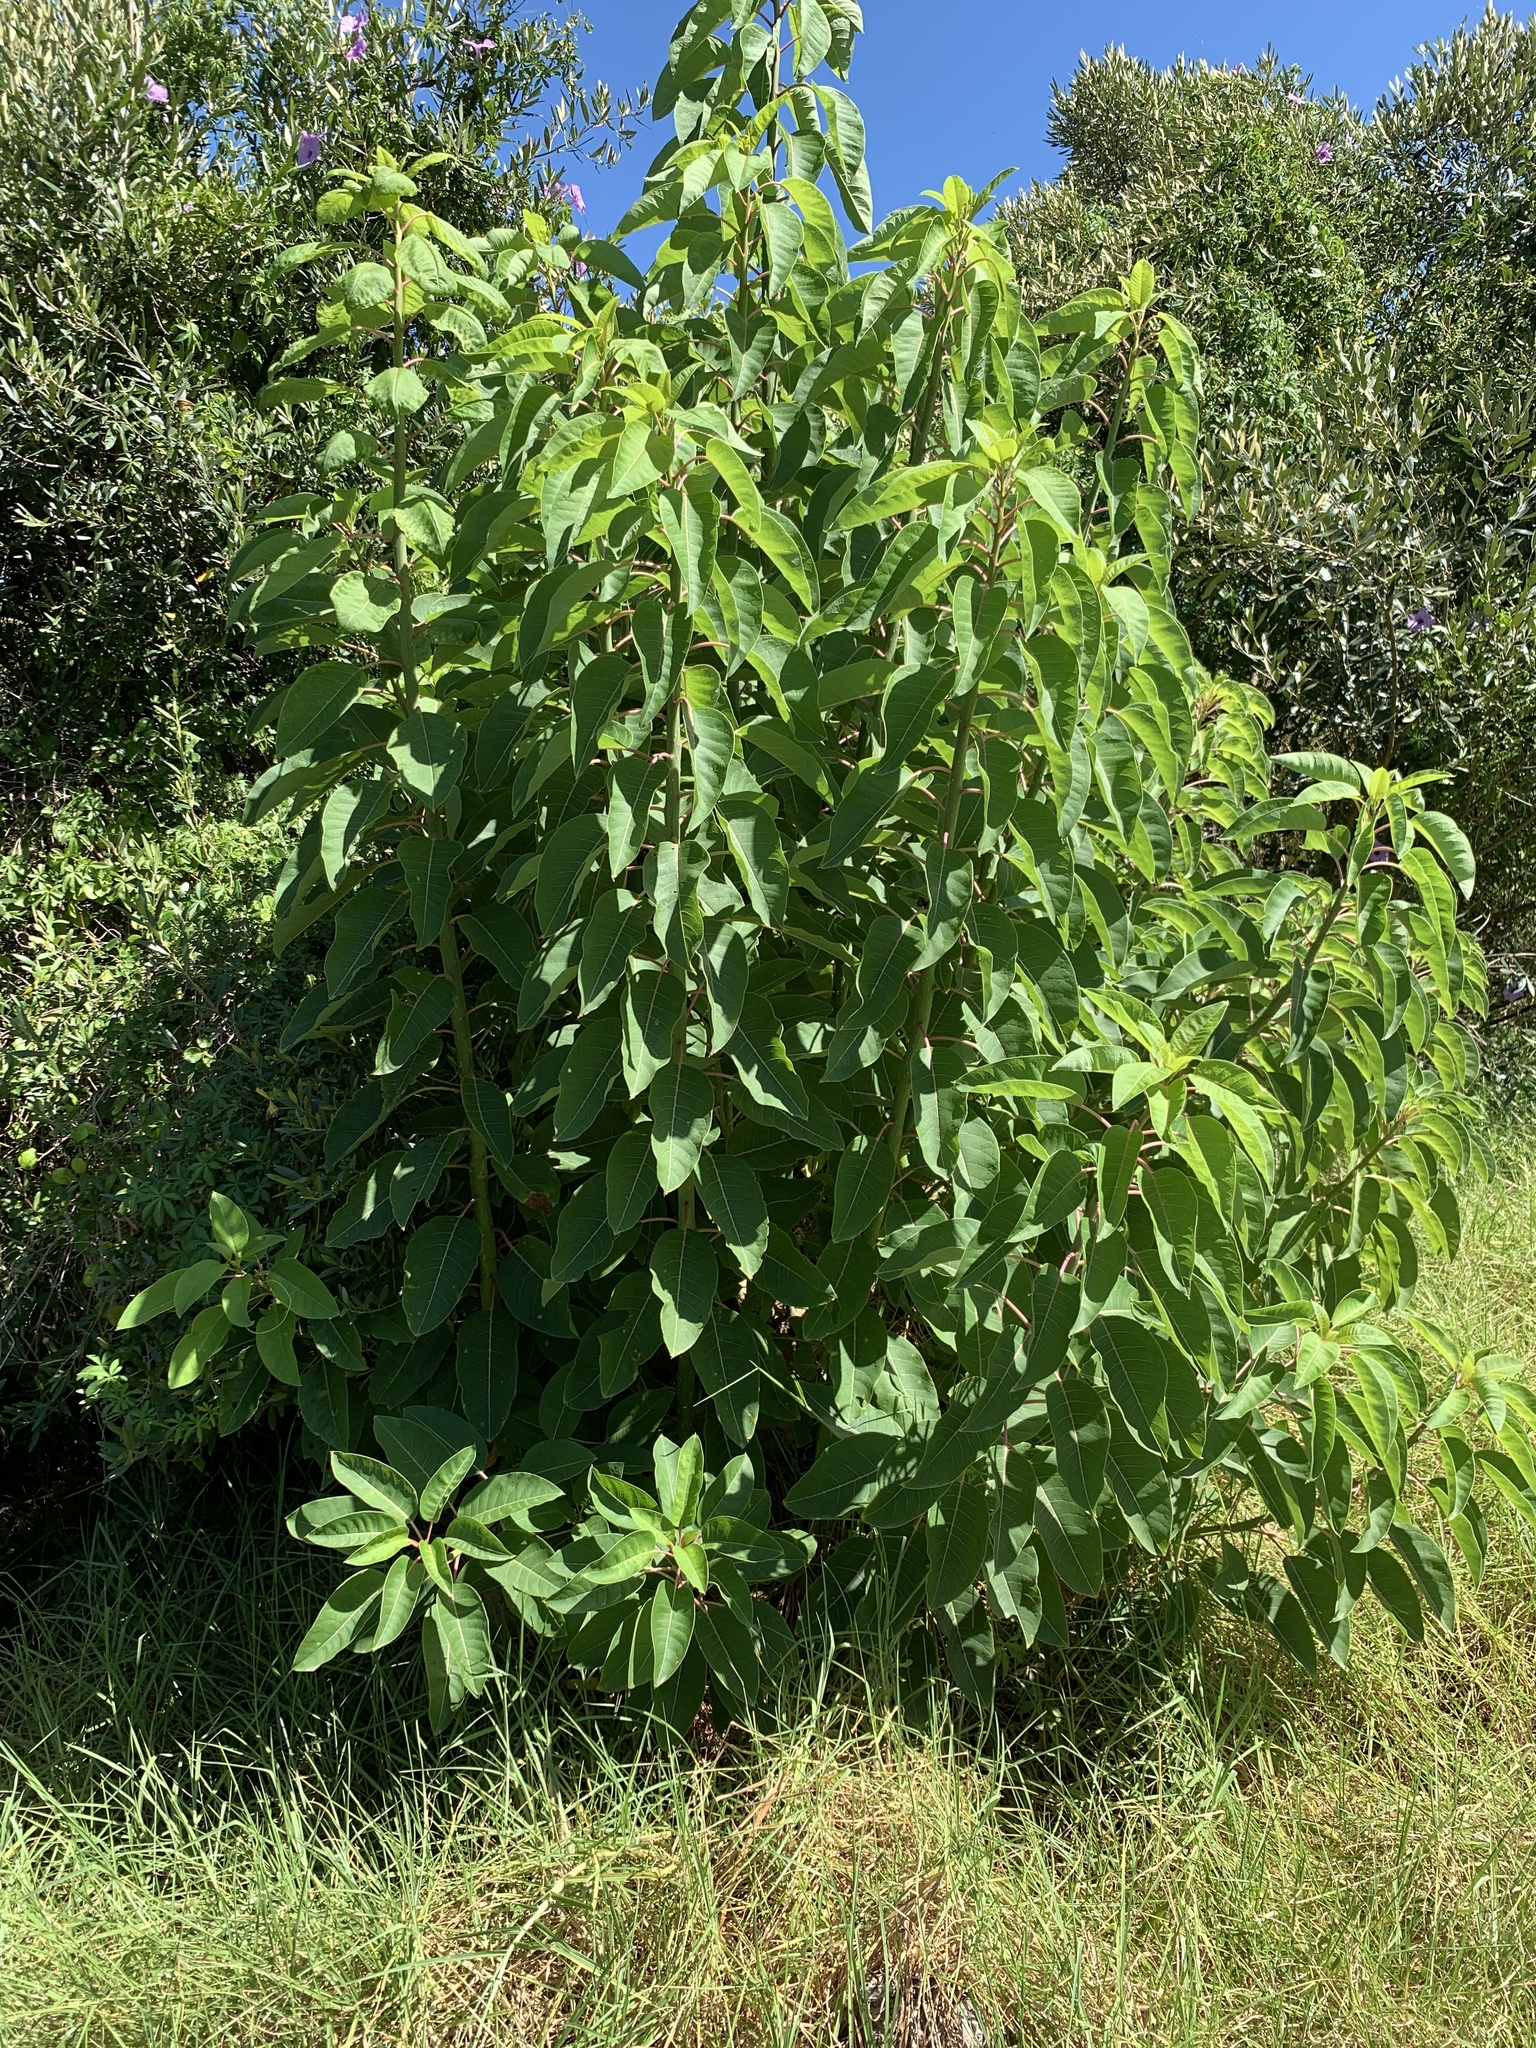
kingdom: Plantae
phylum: Tracheophyta
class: Magnoliopsida
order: Caryophyllales
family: Phytolaccaceae
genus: Phytolacca
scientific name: Phytolacca dioica
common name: Pokeweed
